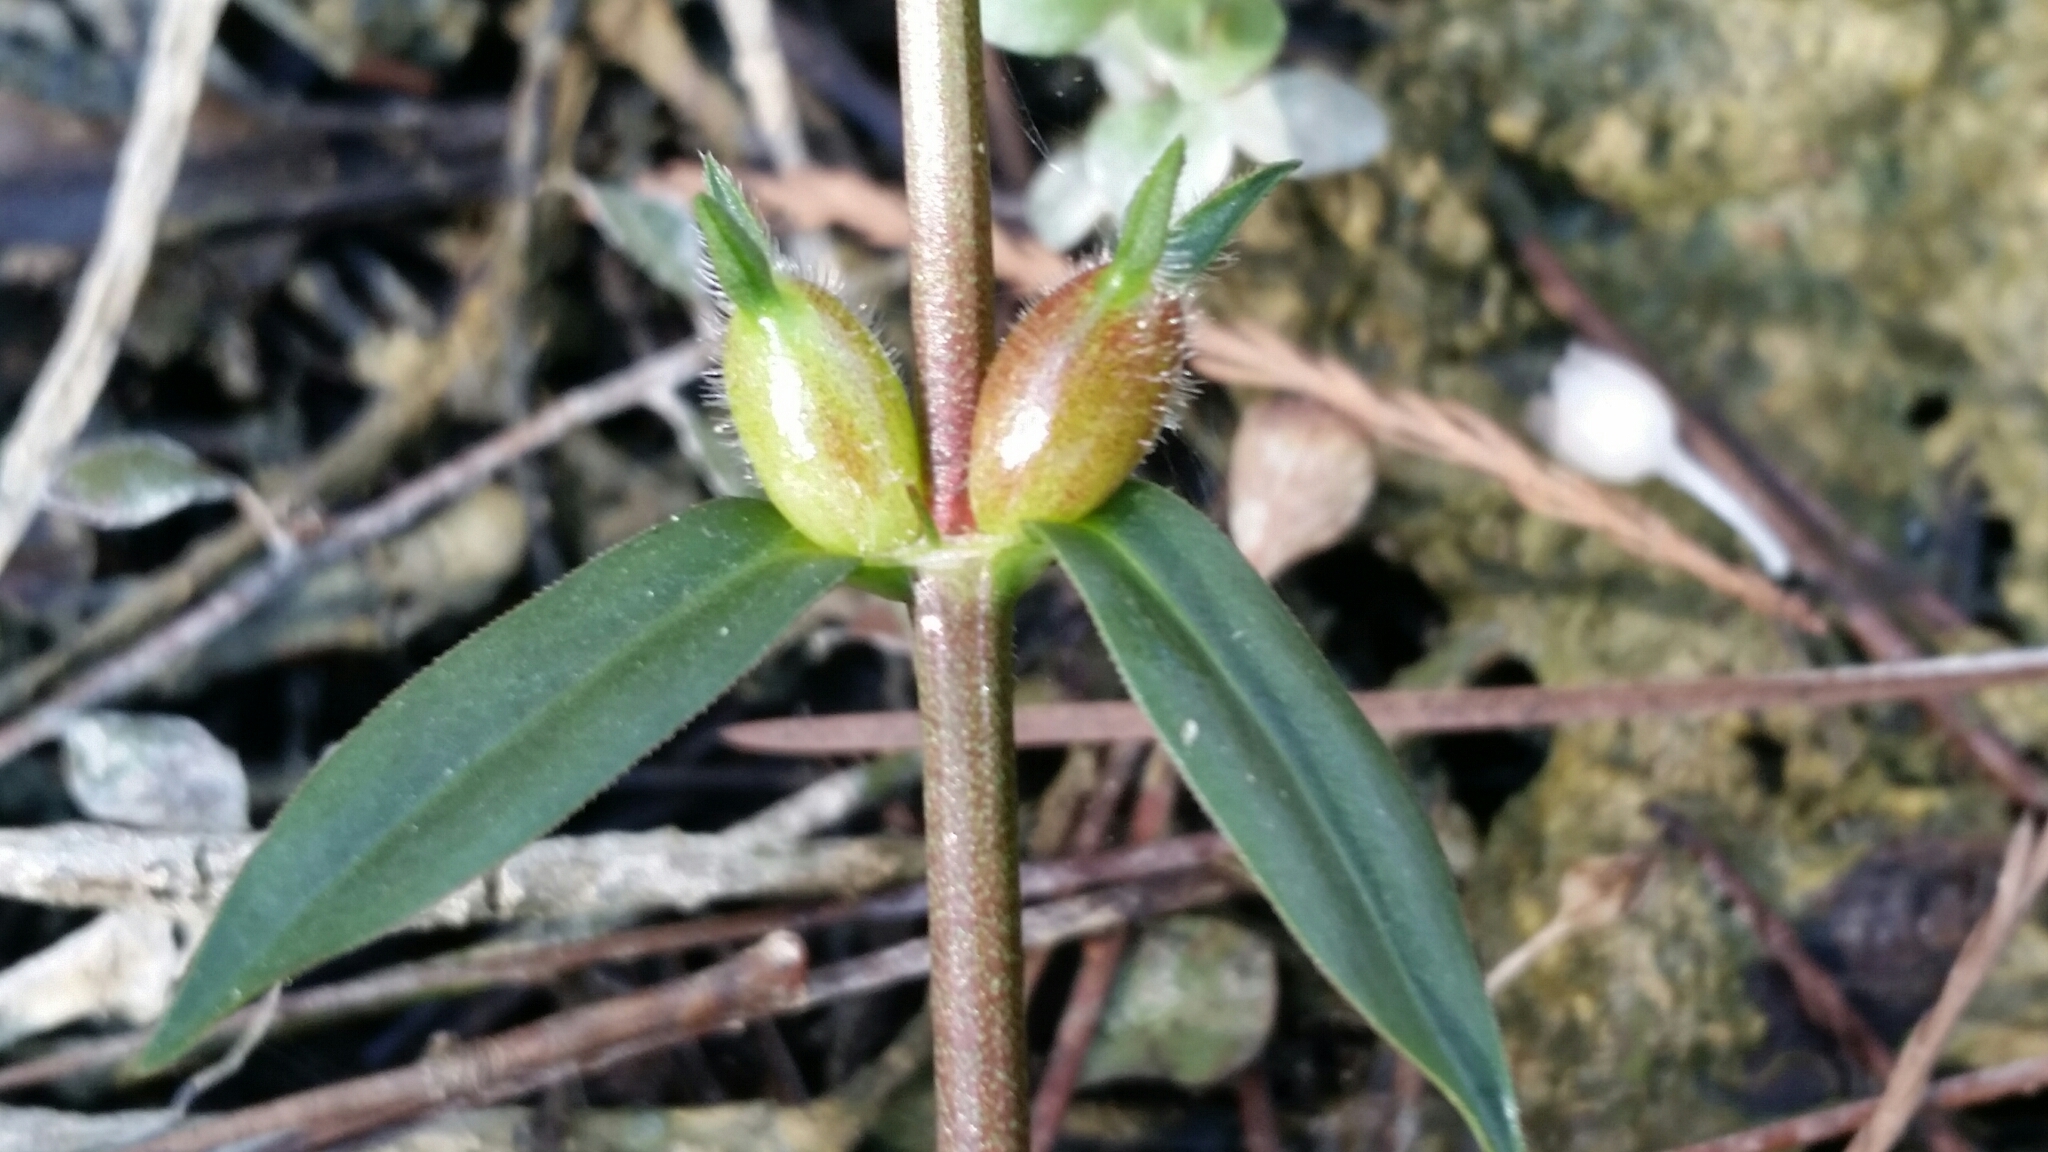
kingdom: Plantae
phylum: Tracheophyta
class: Magnoliopsida
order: Gentianales
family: Rubiaceae
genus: Diodia
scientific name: Diodia virginiana
